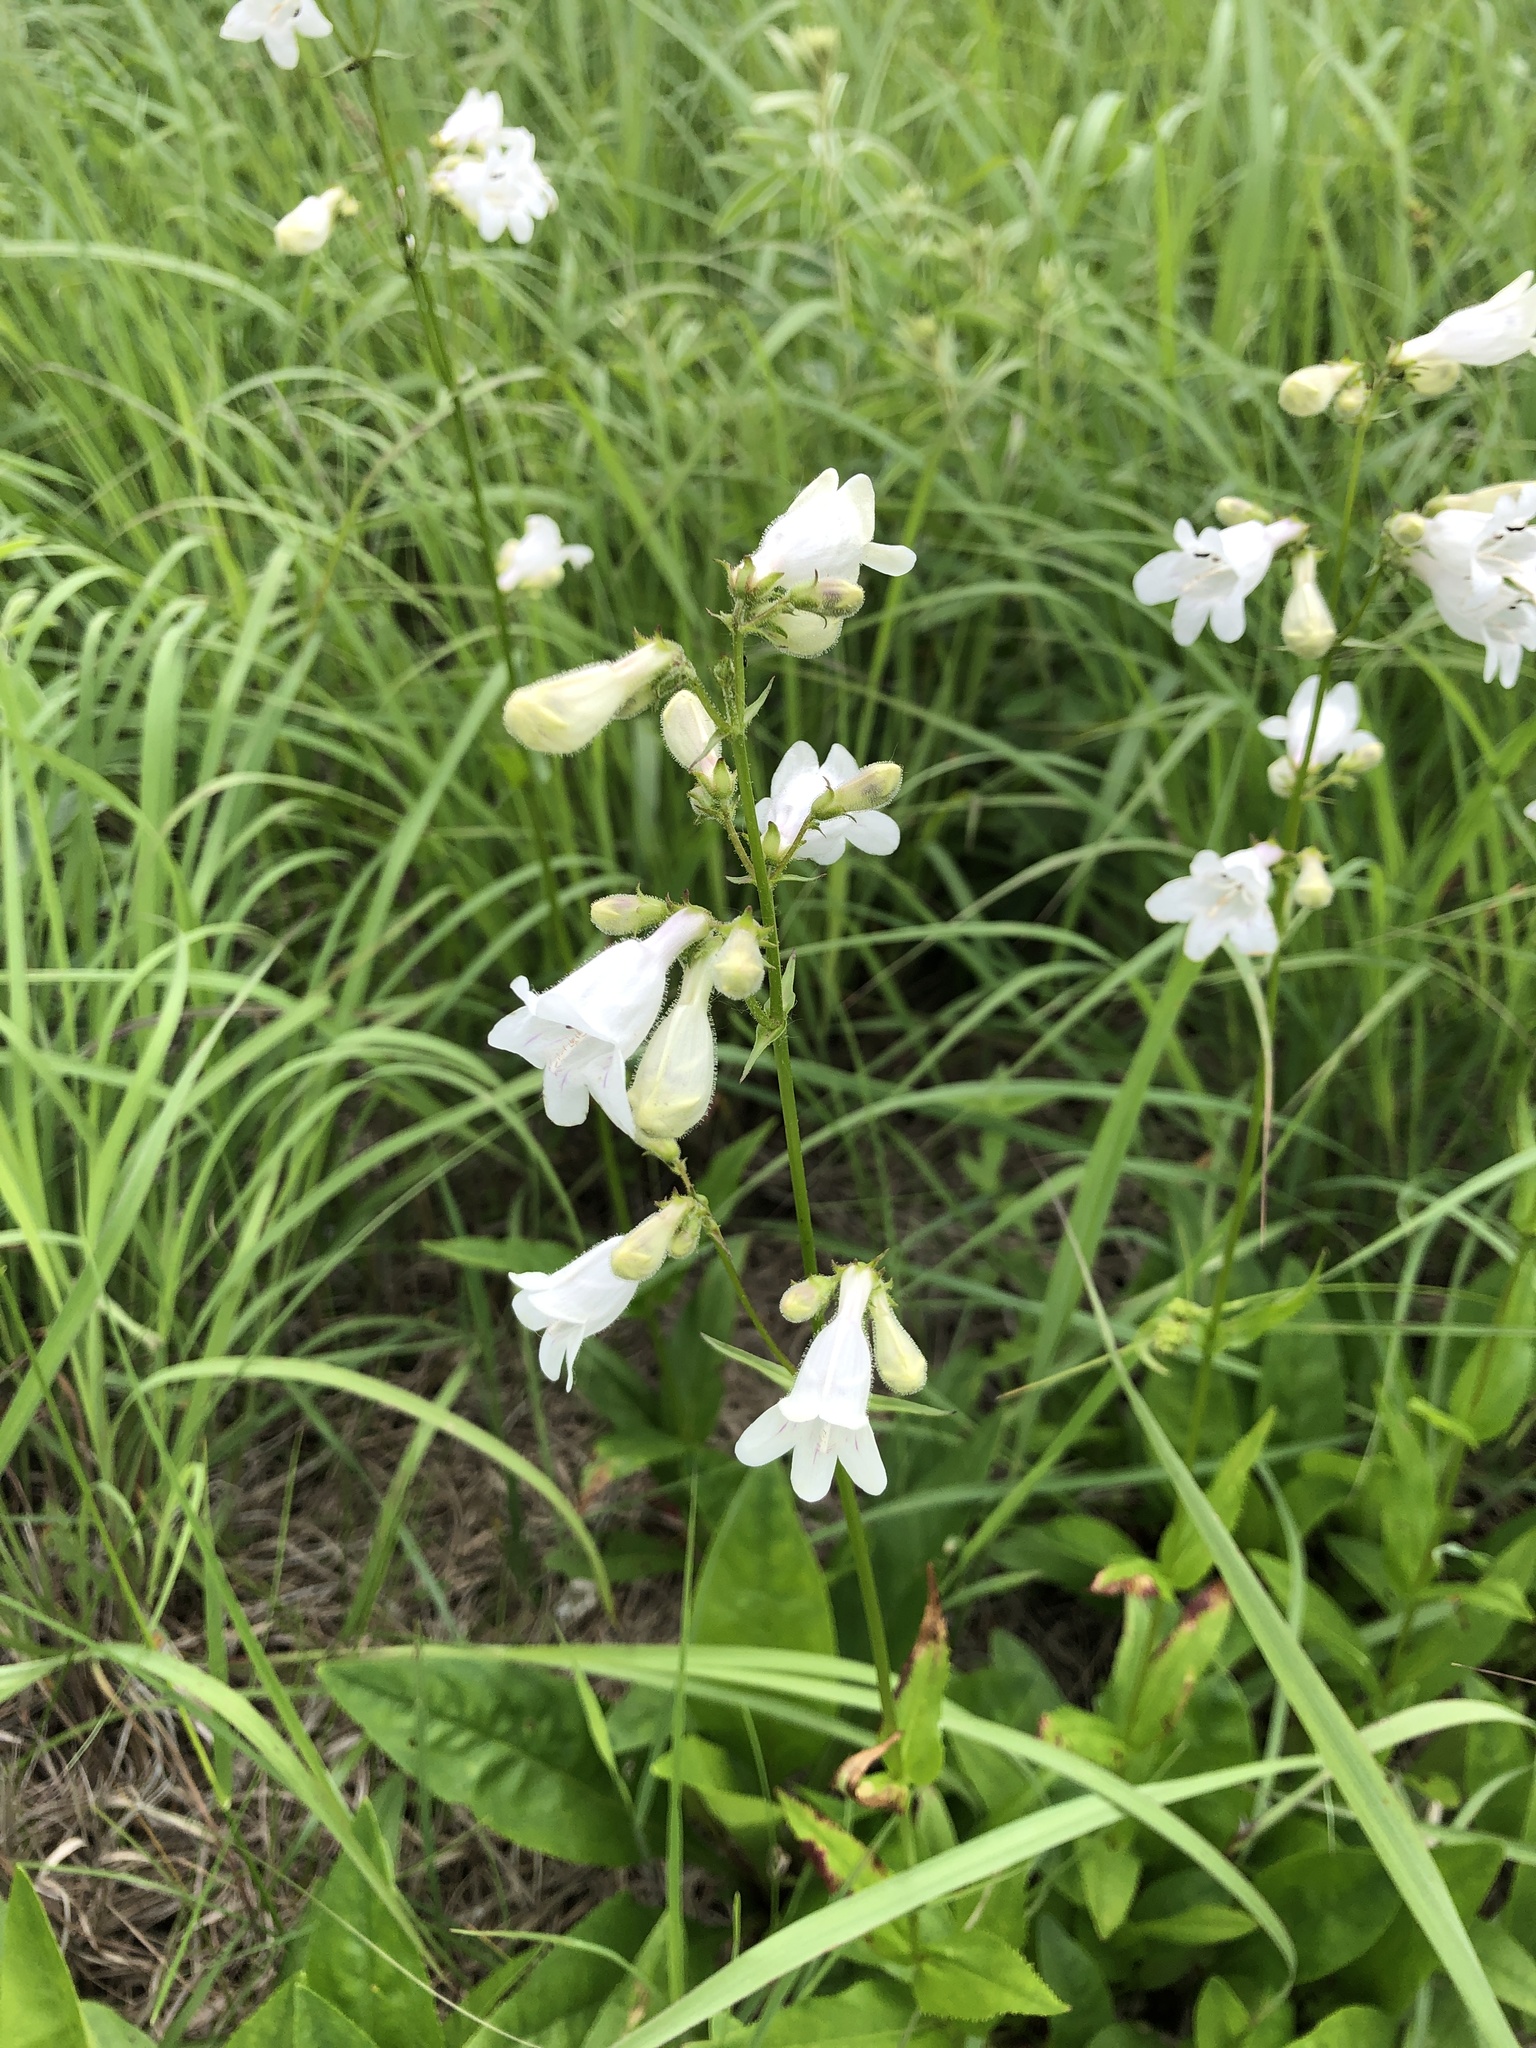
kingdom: Plantae
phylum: Tracheophyta
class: Magnoliopsida
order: Lamiales
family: Plantaginaceae
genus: Penstemon
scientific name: Penstemon digitalis
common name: Foxglove beardtongue
